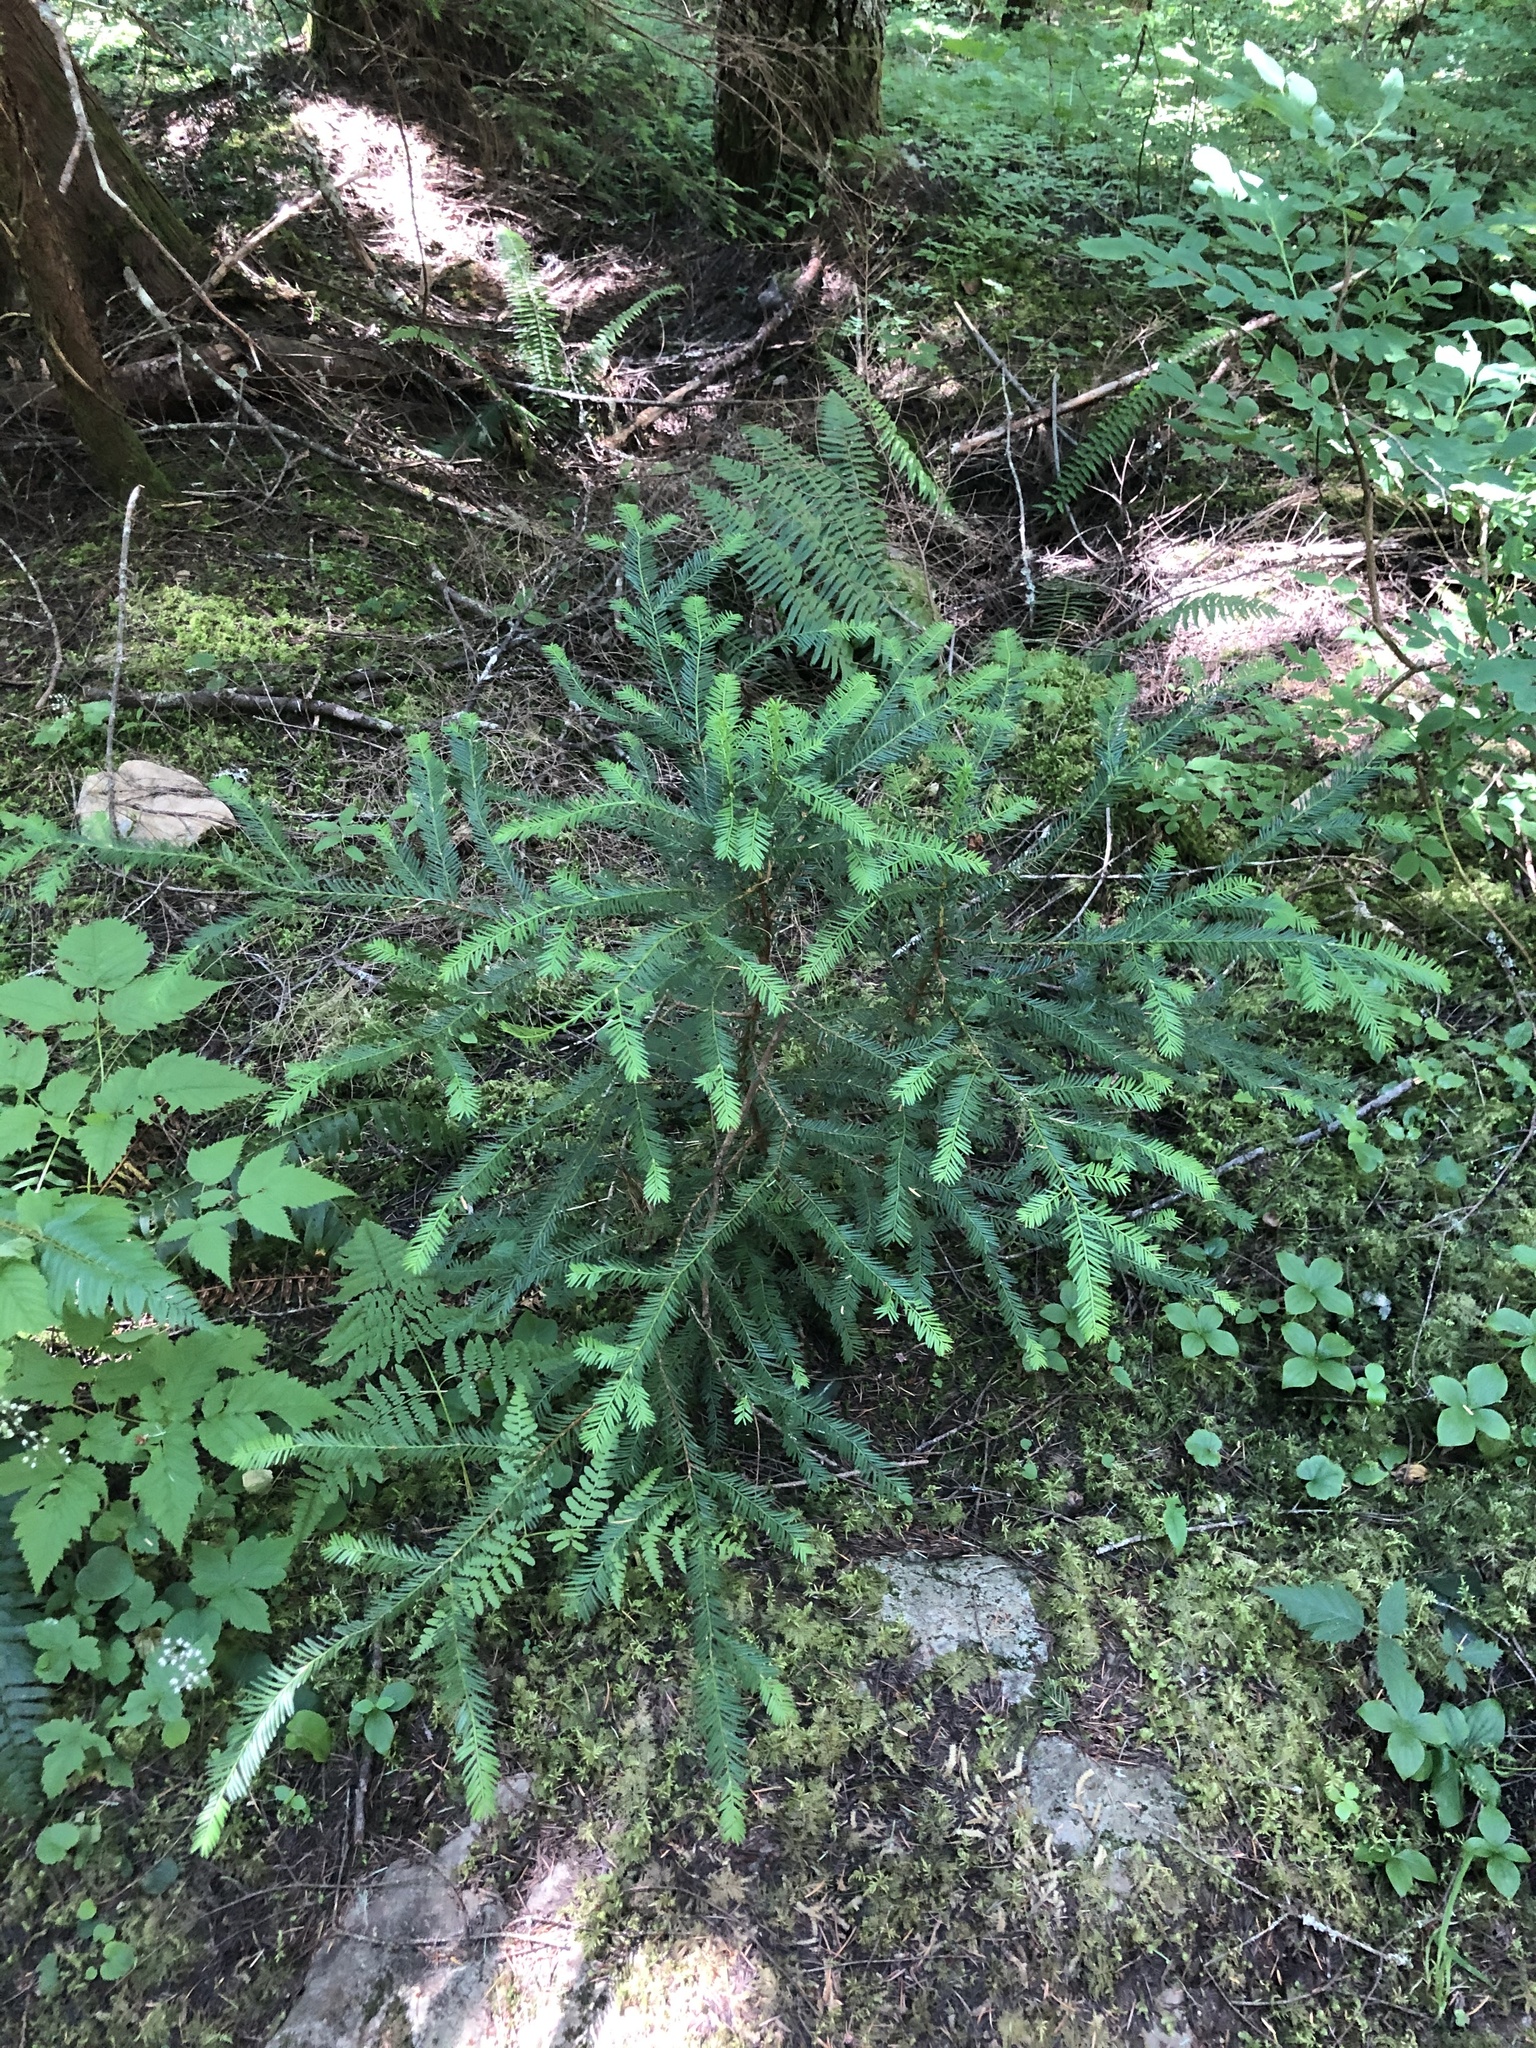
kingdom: Plantae
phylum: Tracheophyta
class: Pinopsida
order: Pinales
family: Taxaceae
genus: Taxus
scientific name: Taxus brevifolia
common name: Pacific yew
